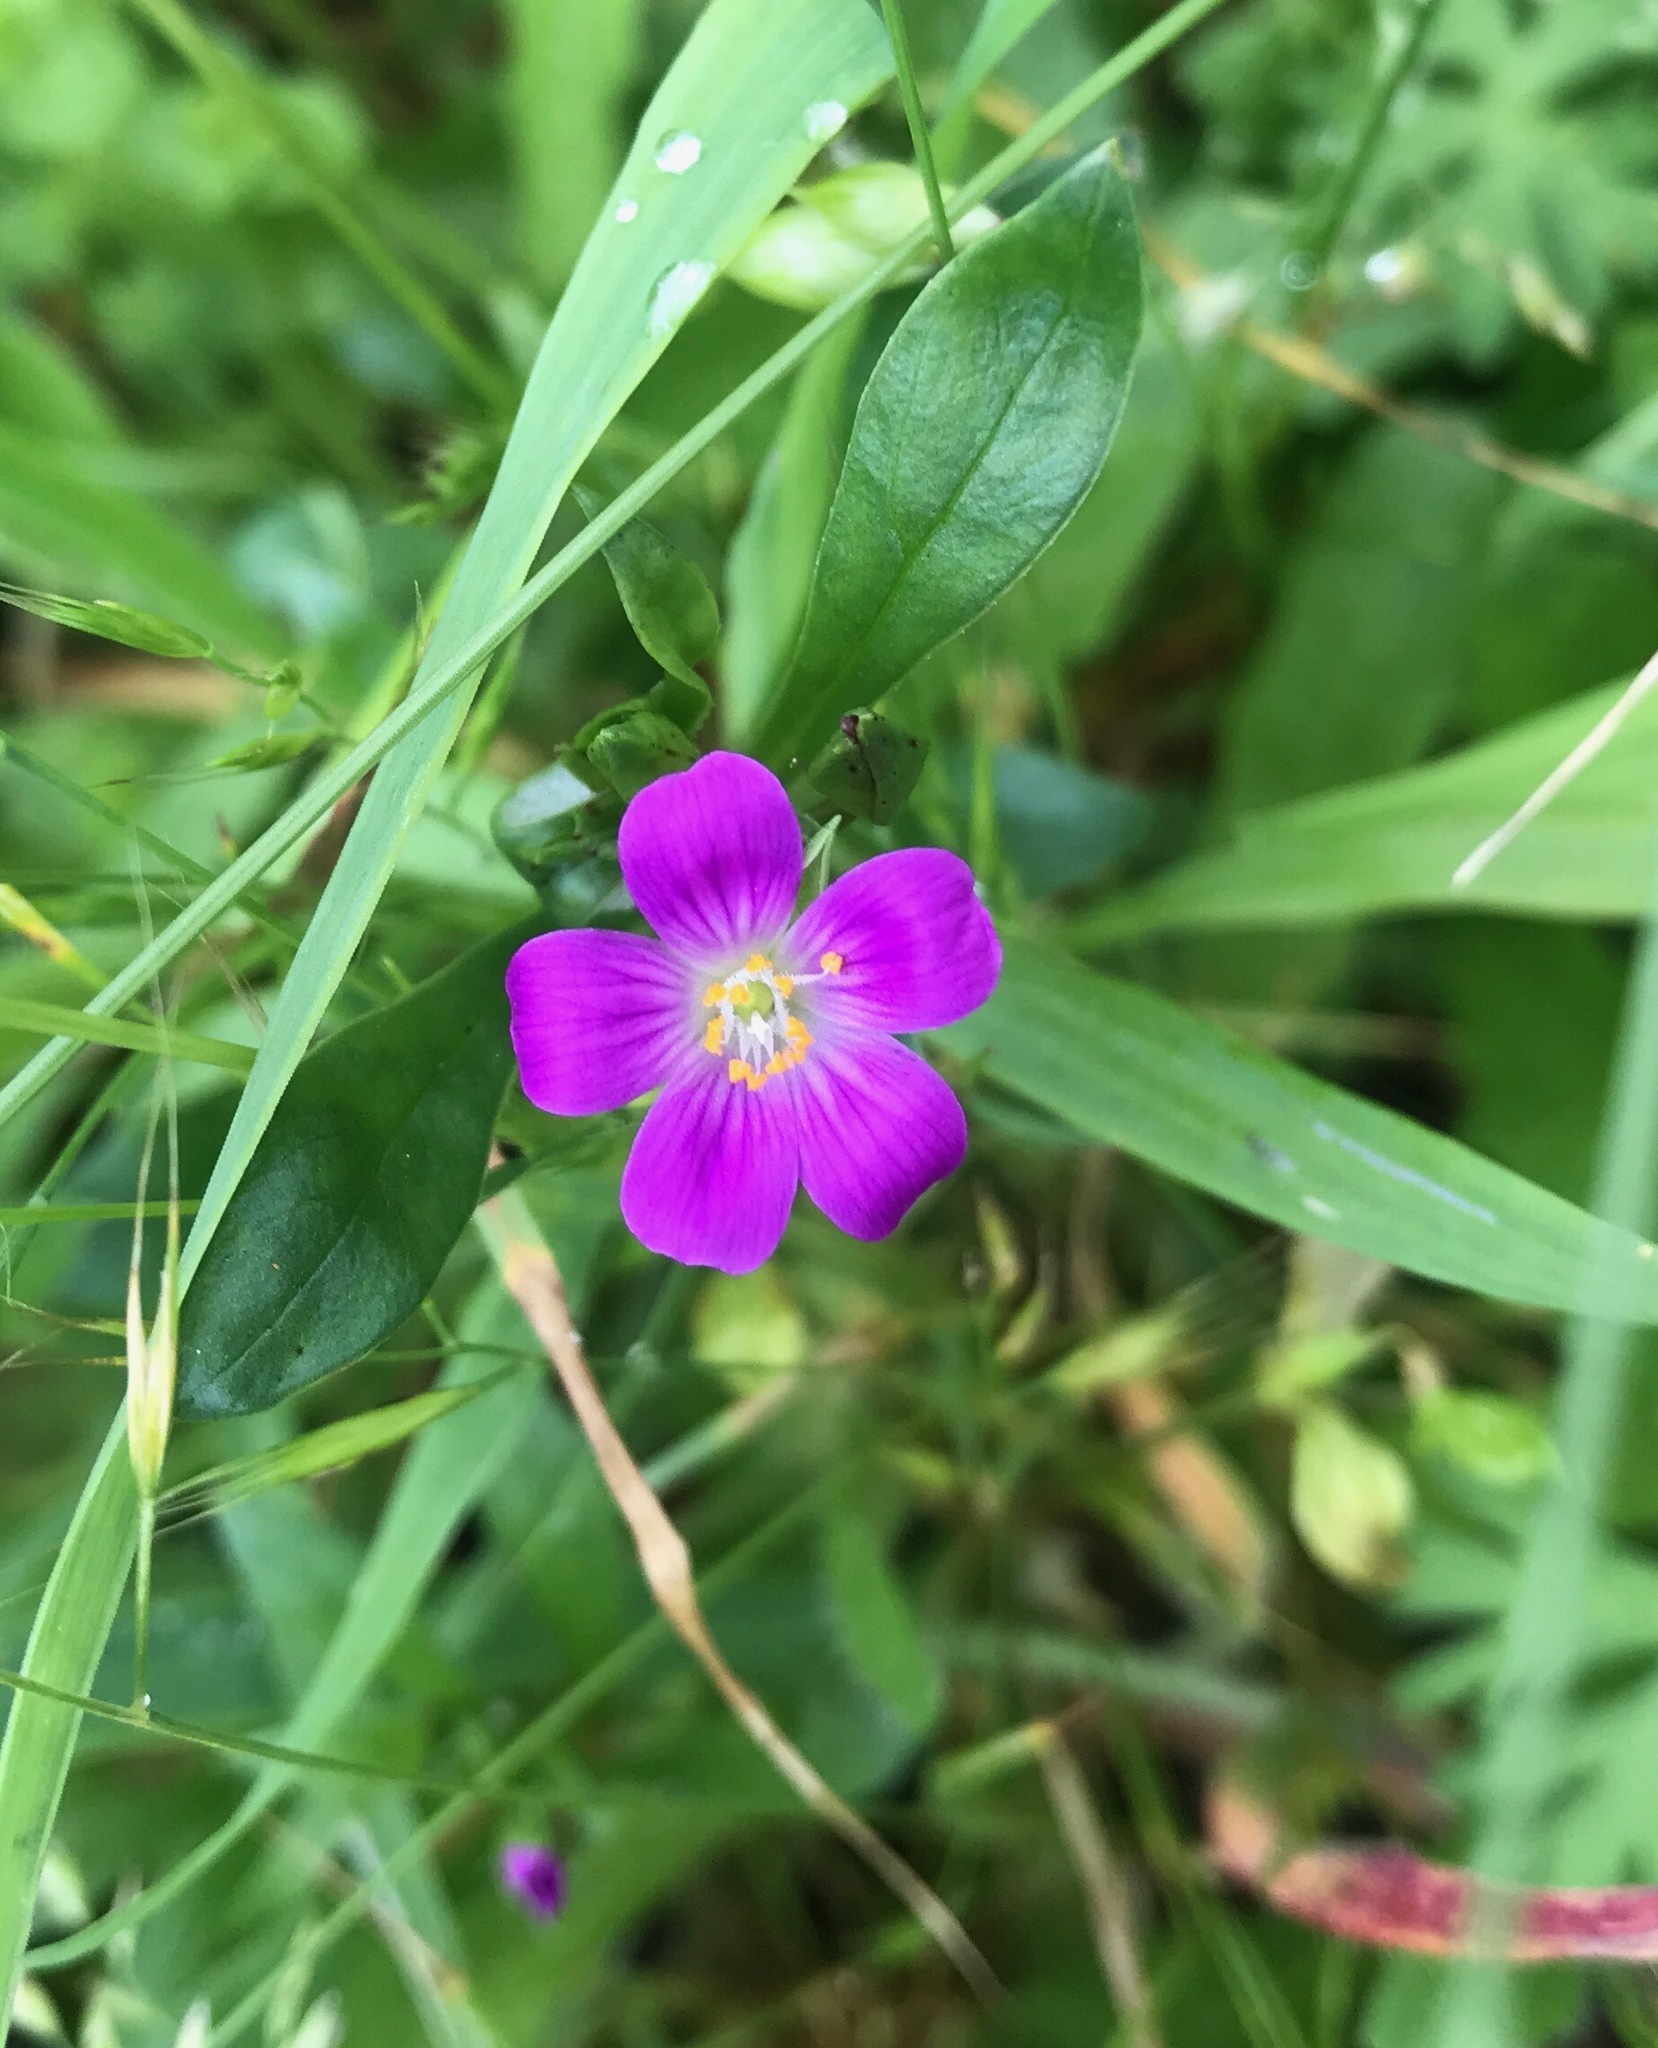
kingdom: Plantae
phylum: Tracheophyta
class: Magnoliopsida
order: Caryophyllales
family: Montiaceae
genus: Calandrinia
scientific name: Calandrinia menziesii
